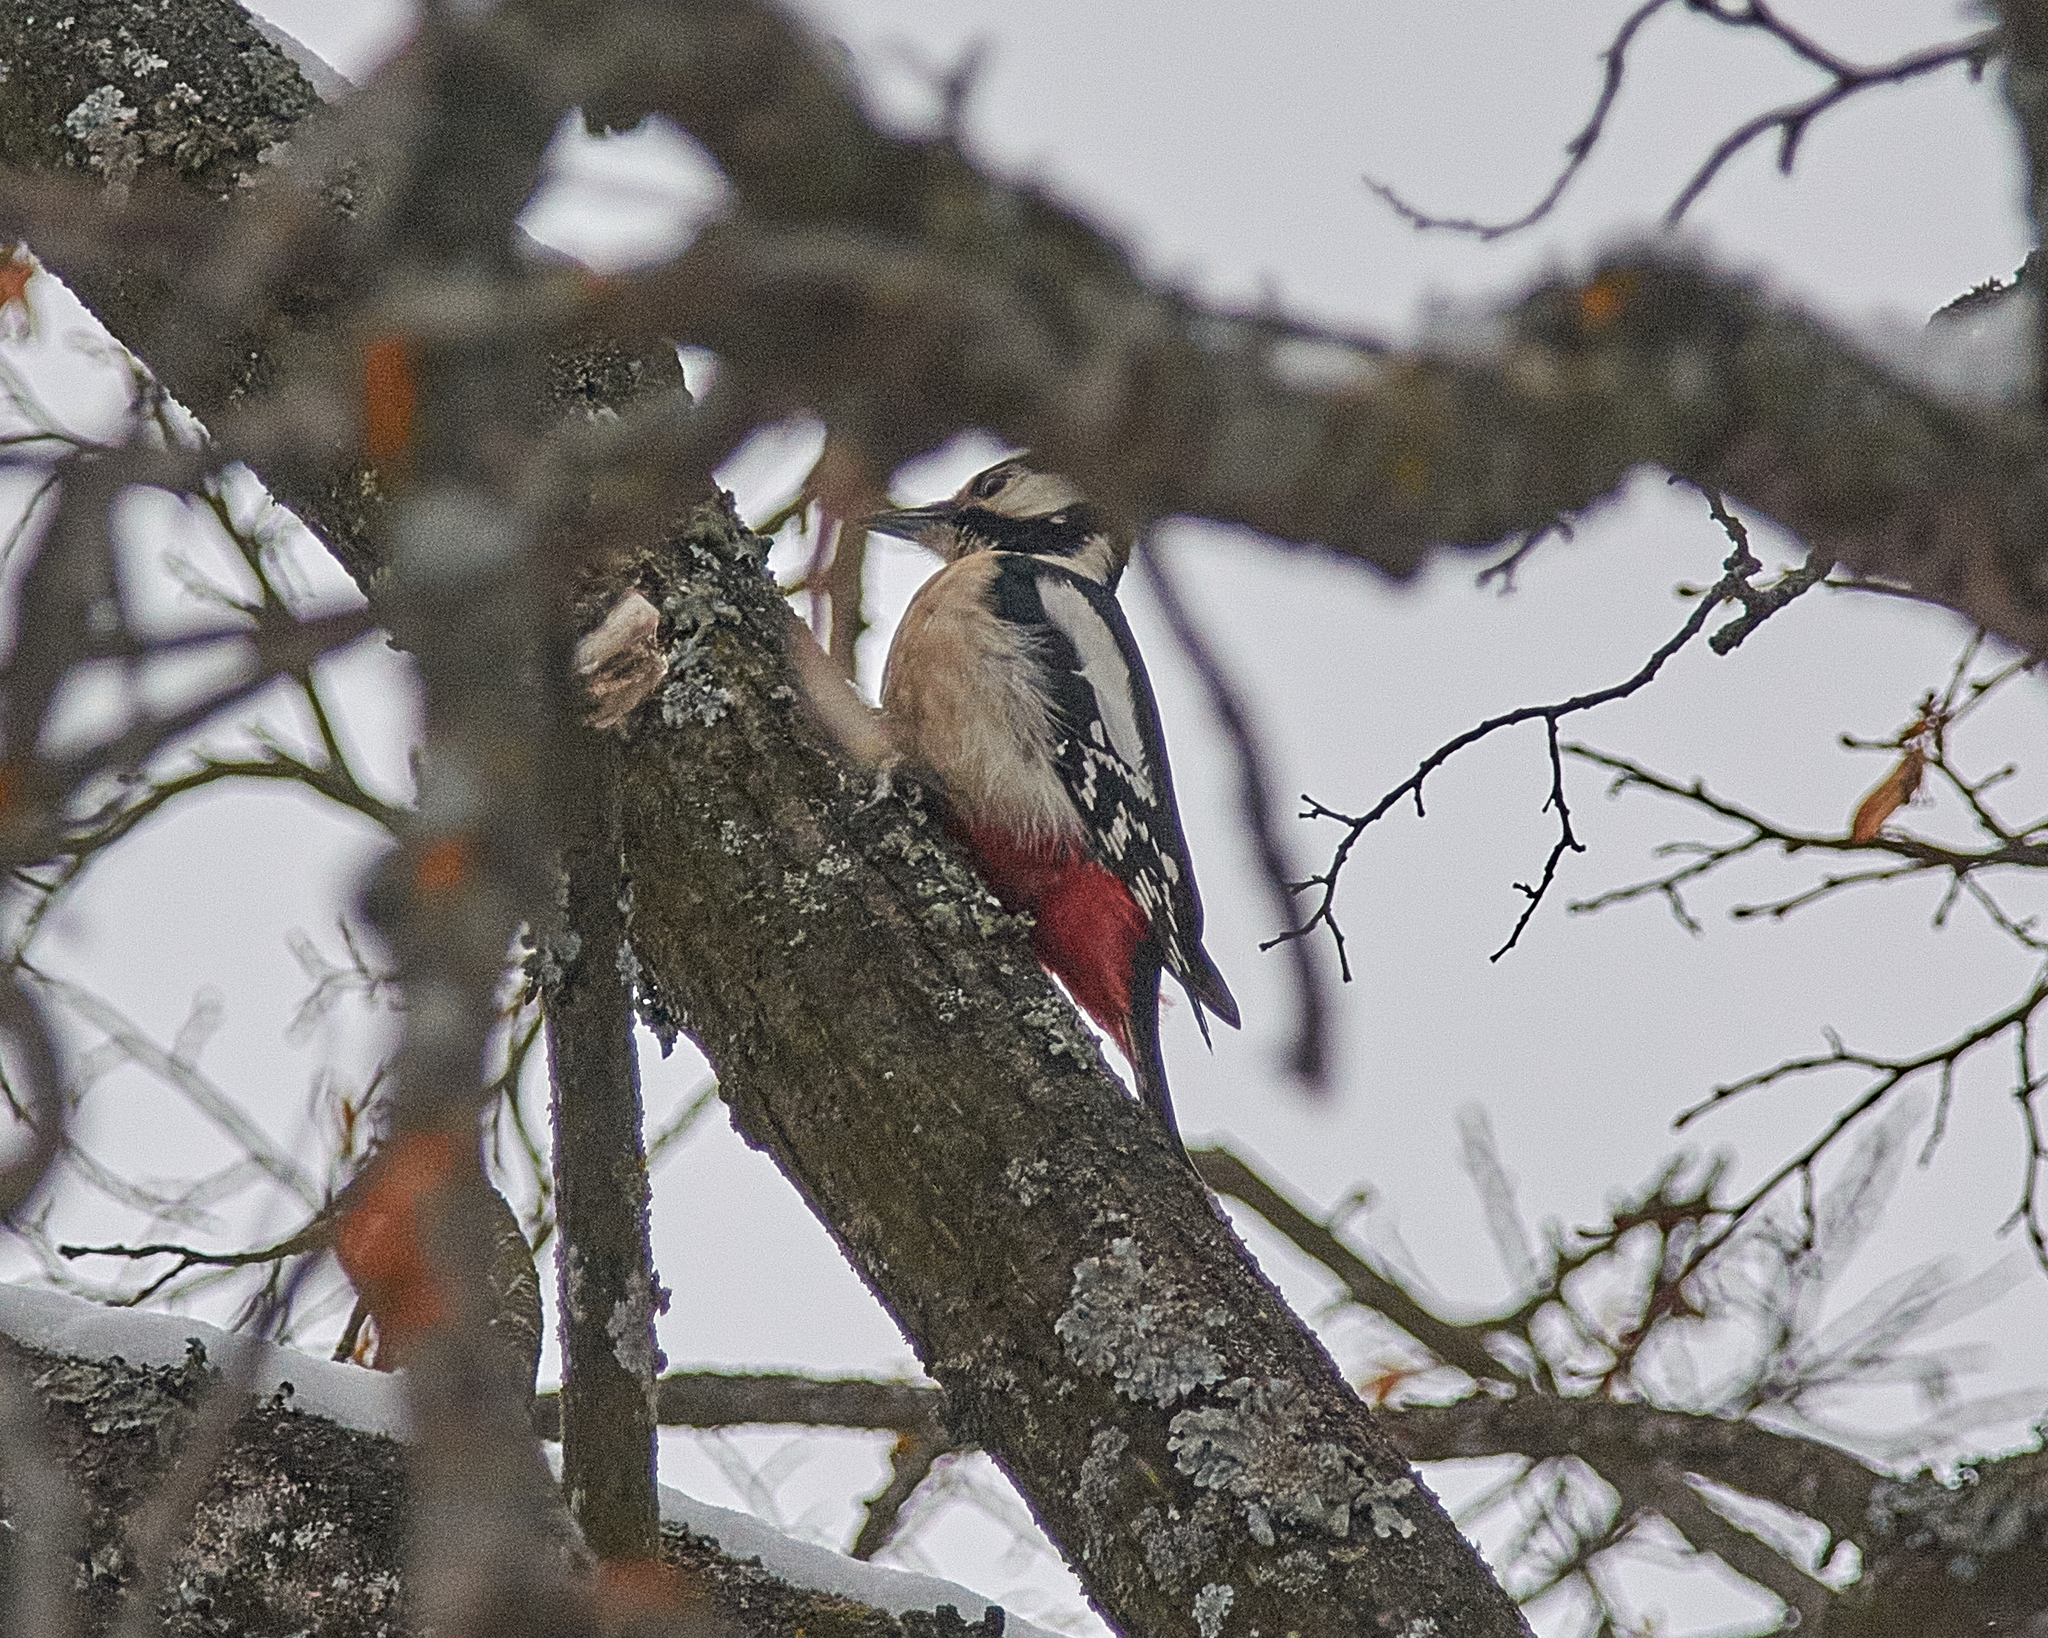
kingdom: Animalia
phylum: Chordata
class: Aves
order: Piciformes
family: Picidae
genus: Dendrocopos
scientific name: Dendrocopos major
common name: Great spotted woodpecker
